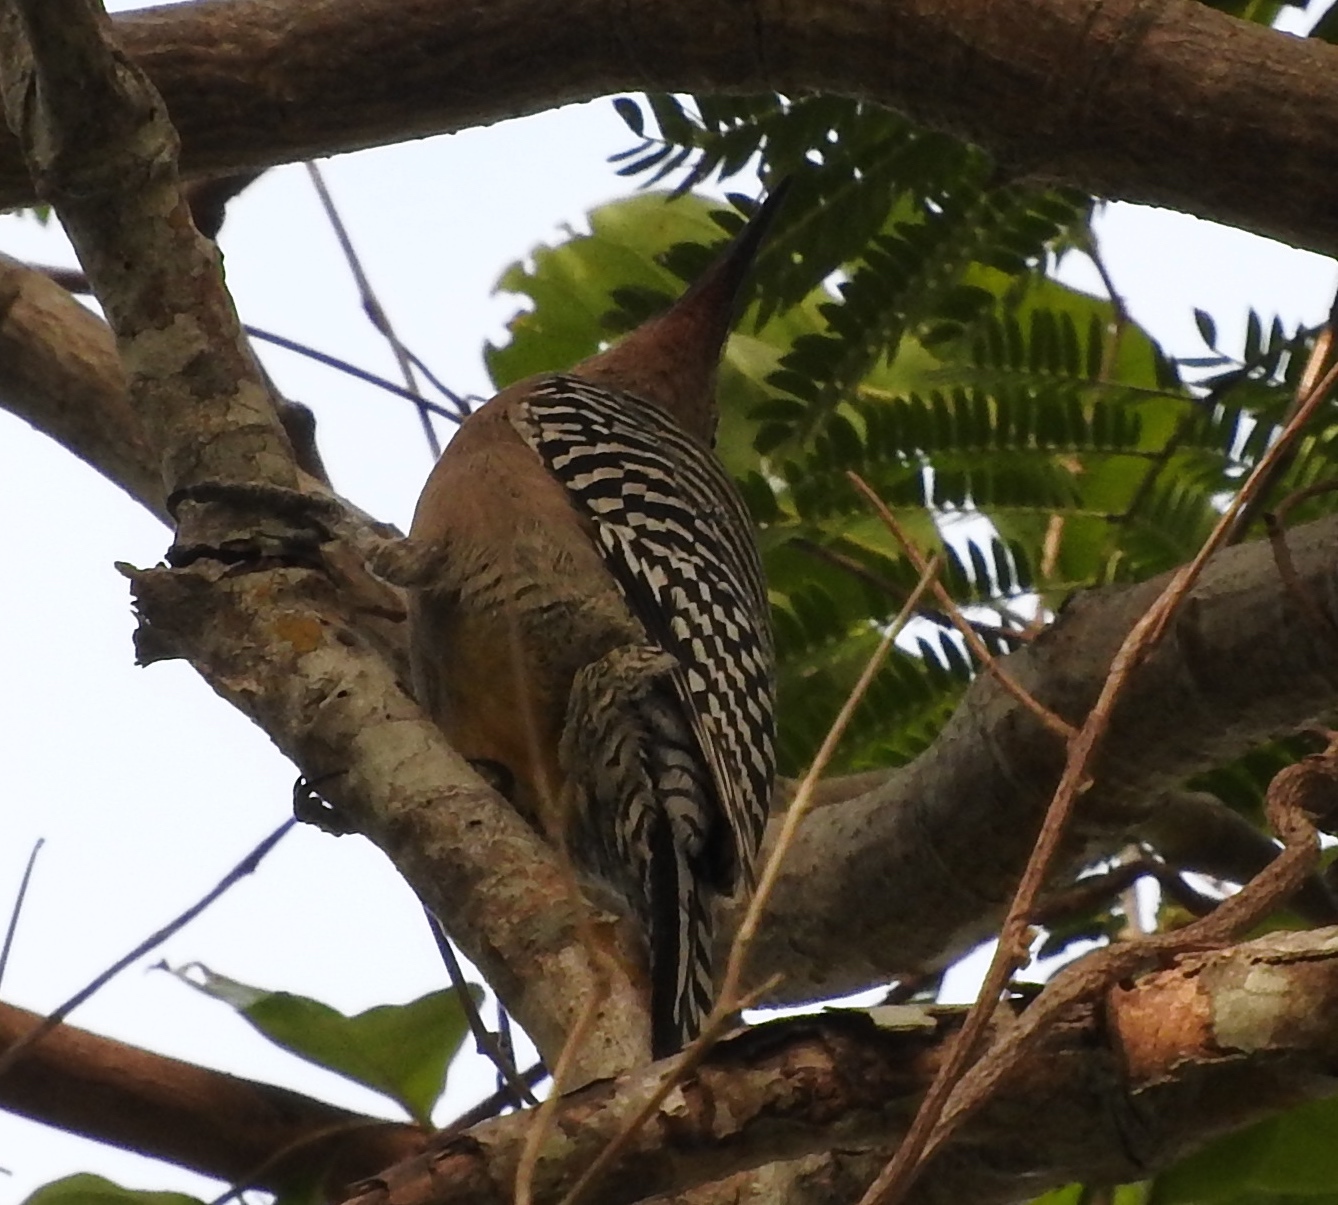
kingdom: Animalia
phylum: Chordata
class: Aves
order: Piciformes
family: Picidae
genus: Melanerpes
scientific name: Melanerpes uropygialis
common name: Gila woodpecker
